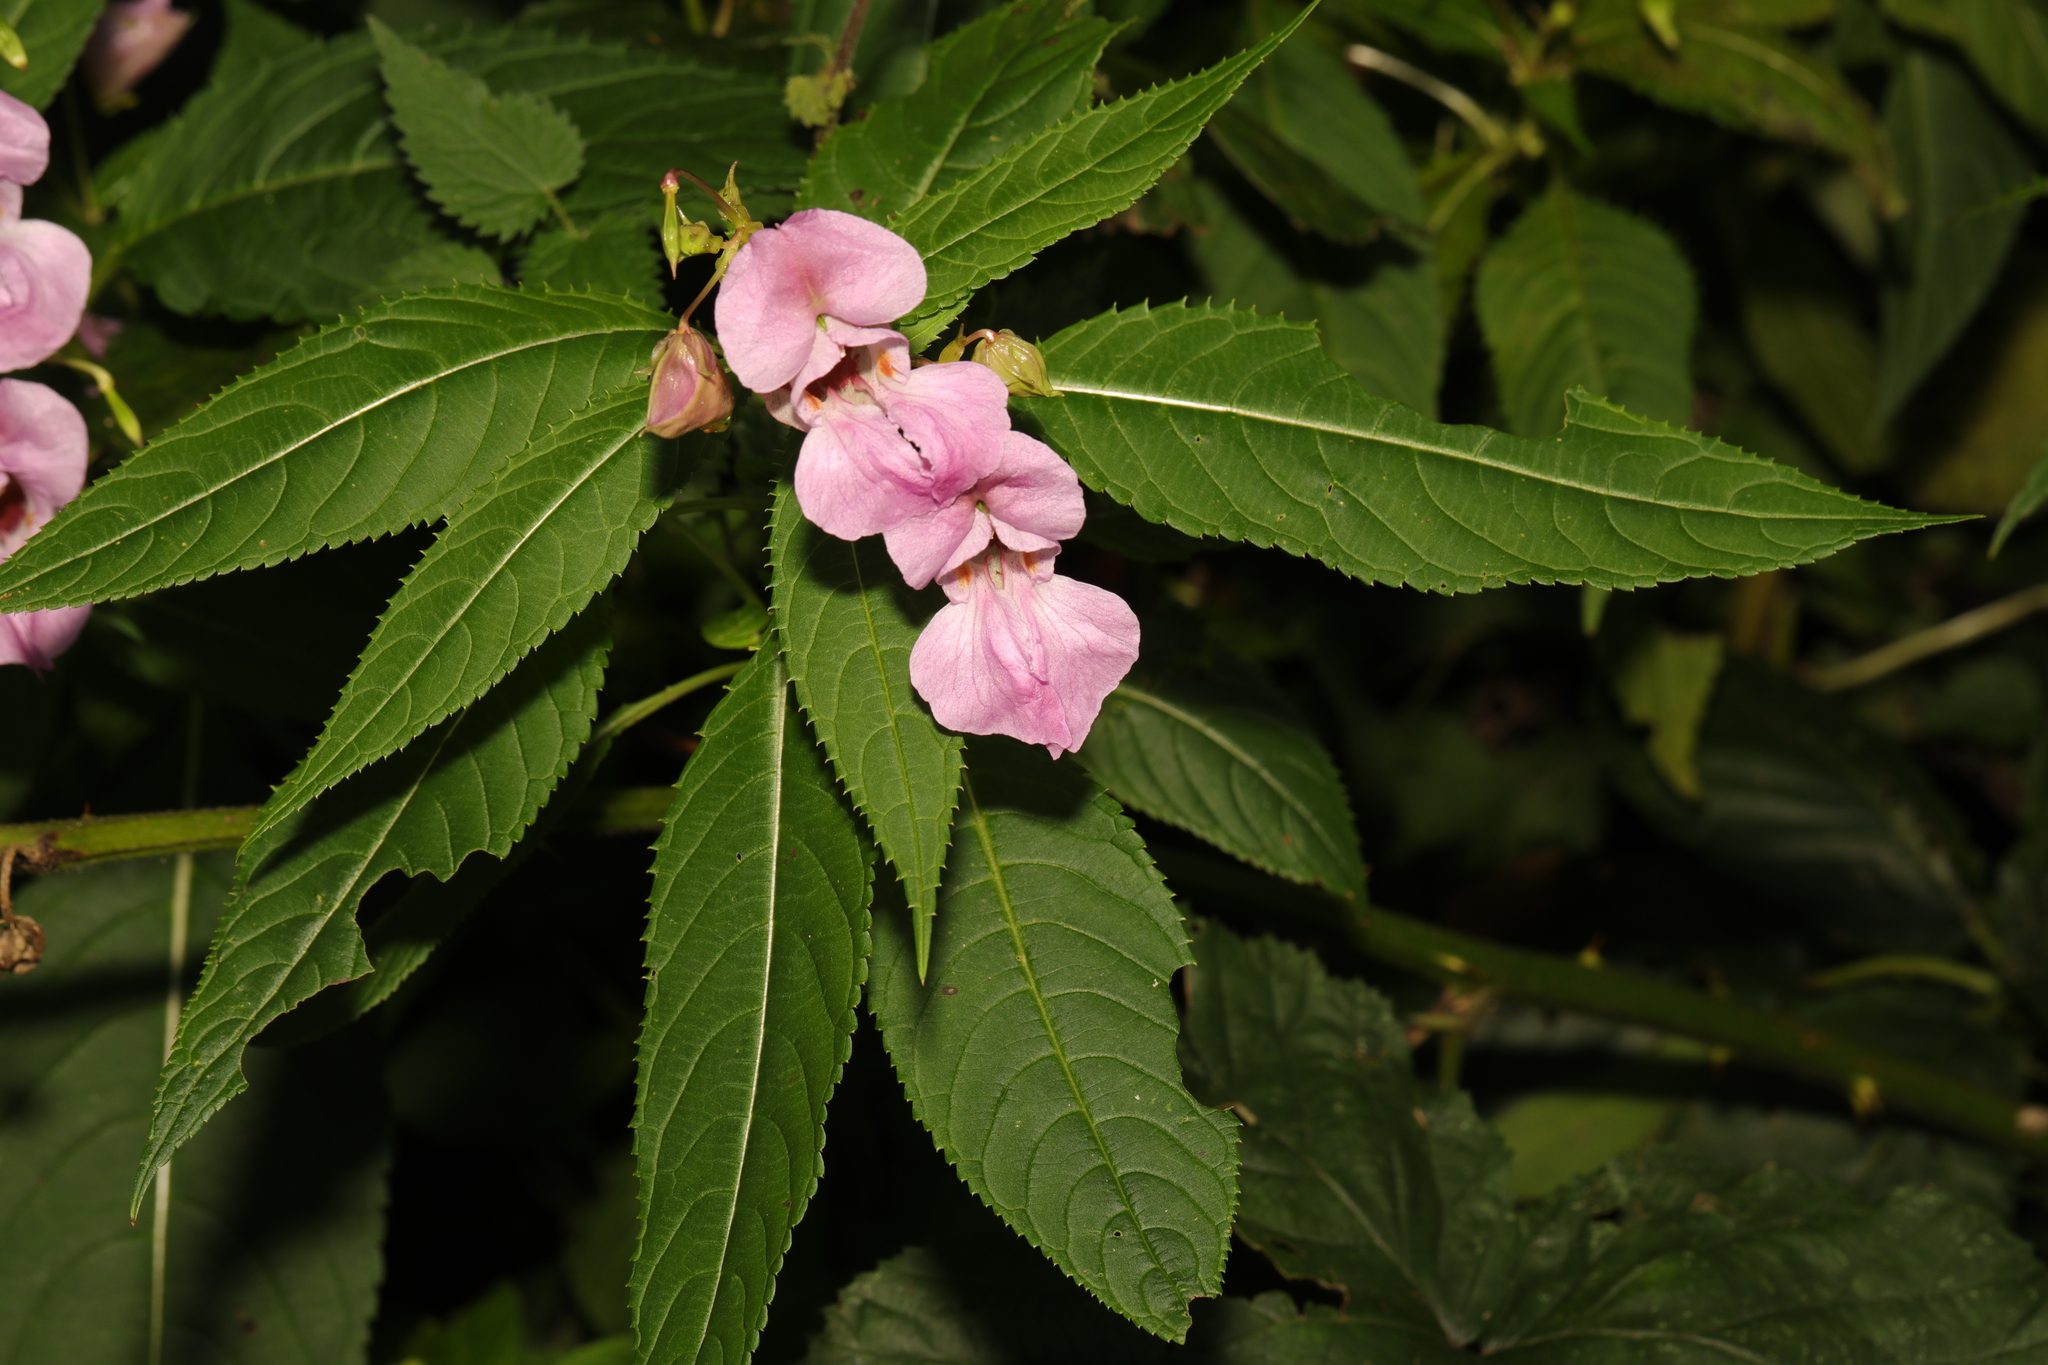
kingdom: Plantae
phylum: Tracheophyta
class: Magnoliopsida
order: Ericales
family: Balsaminaceae
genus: Impatiens
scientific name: Impatiens glandulifera
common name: Himalayan balsam
